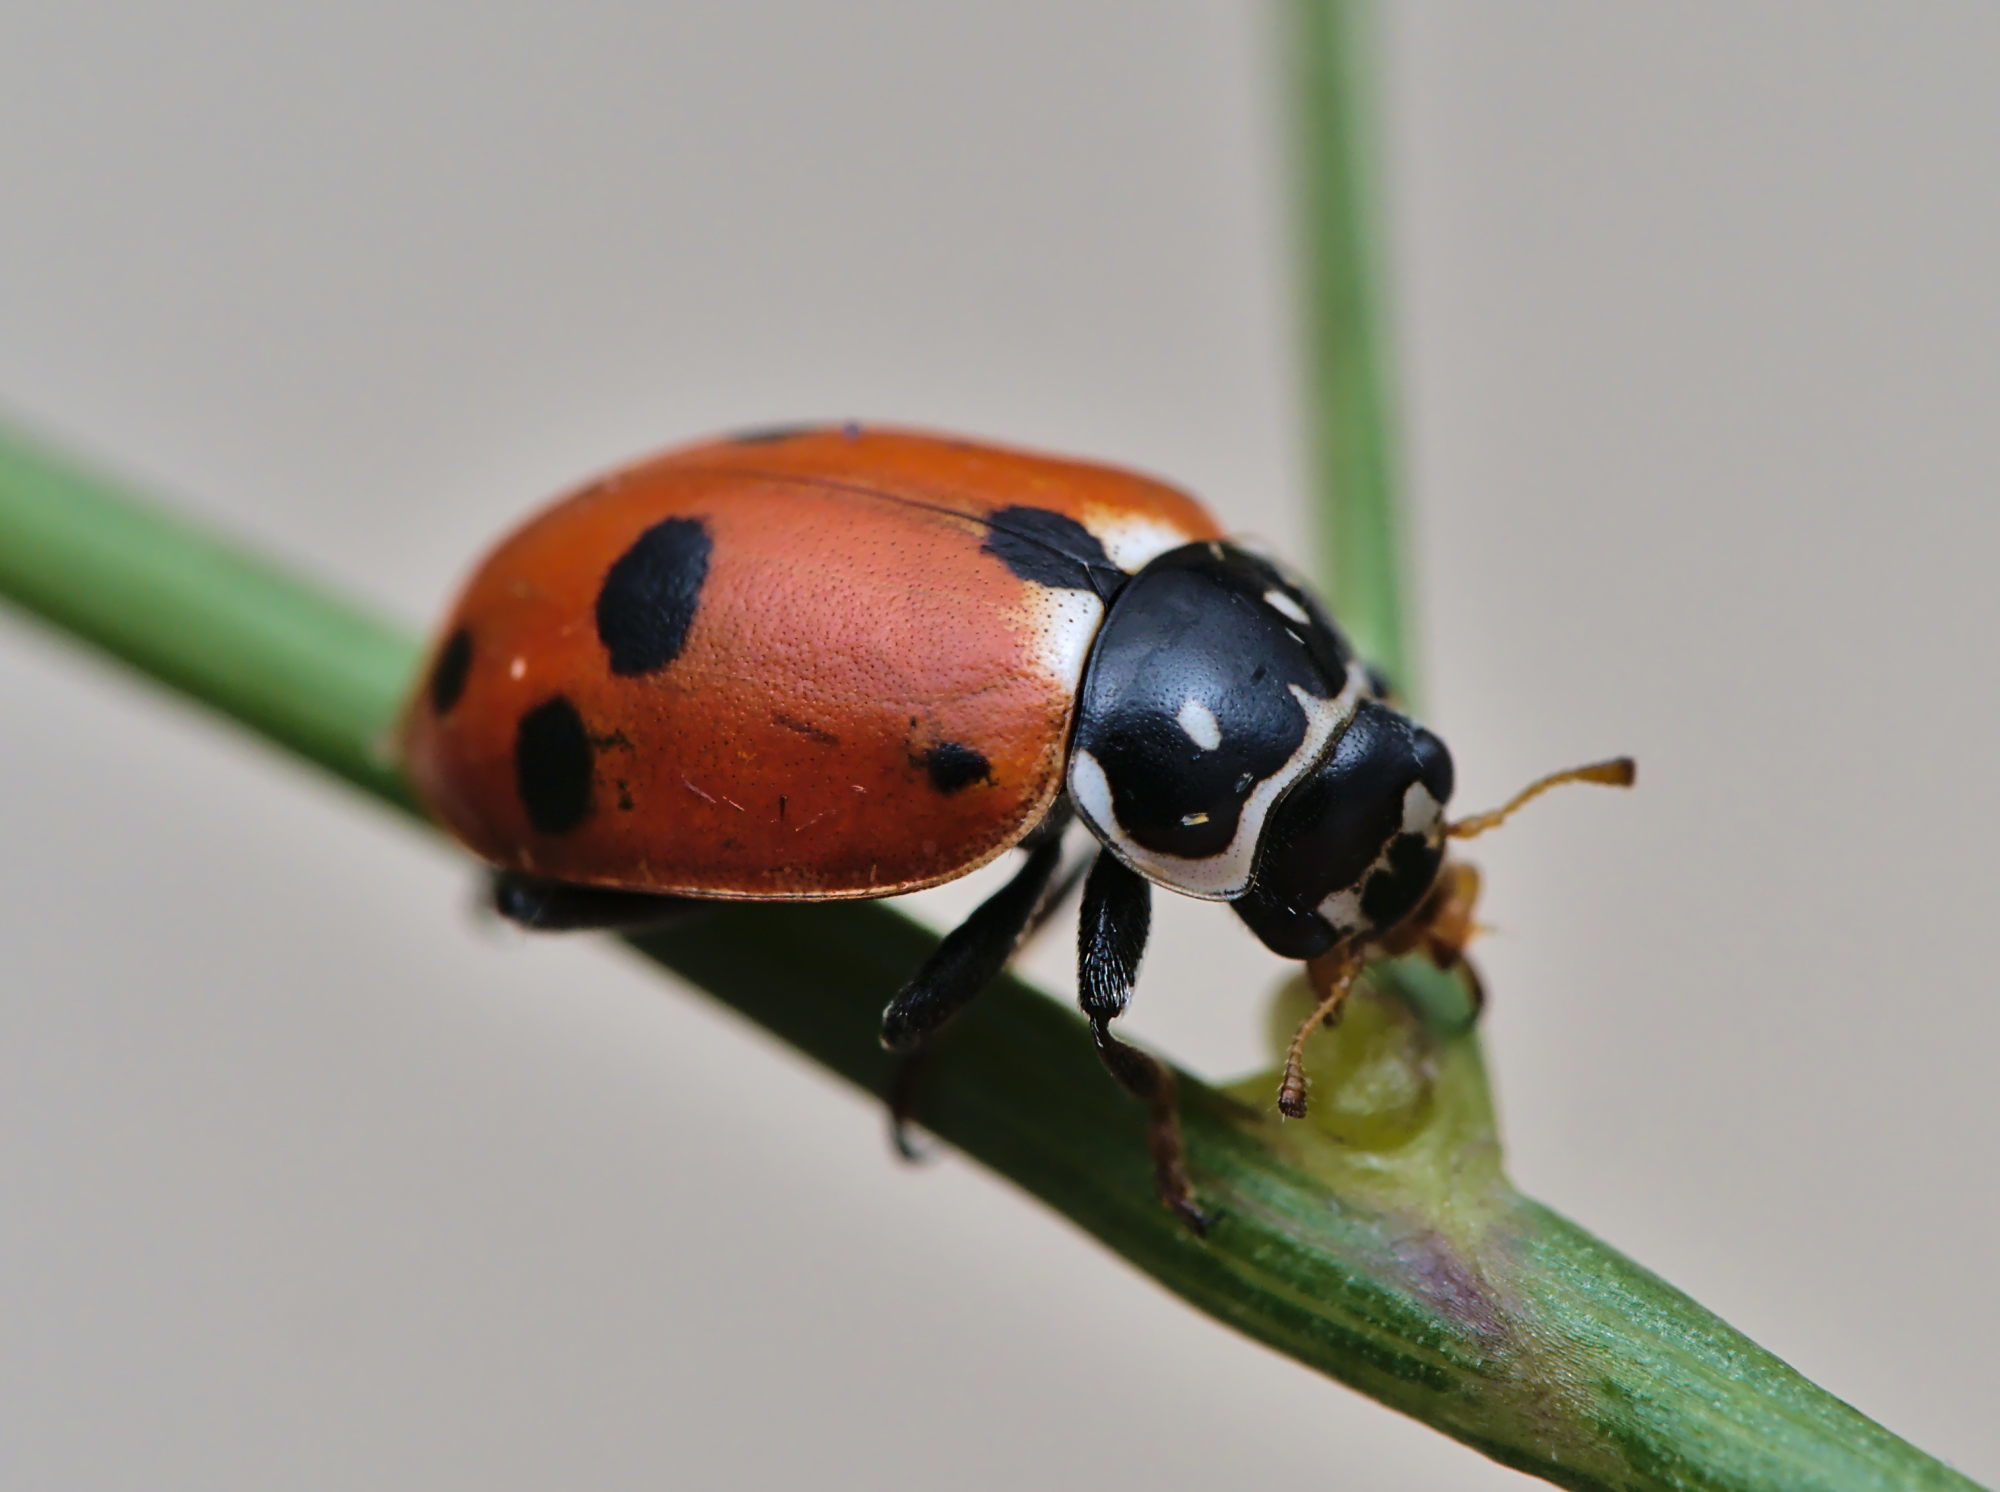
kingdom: Animalia
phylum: Arthropoda
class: Insecta
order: Coleoptera
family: Coccinellidae
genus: Hippodamia
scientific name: Hippodamia variegata
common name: Ladybird beetle
